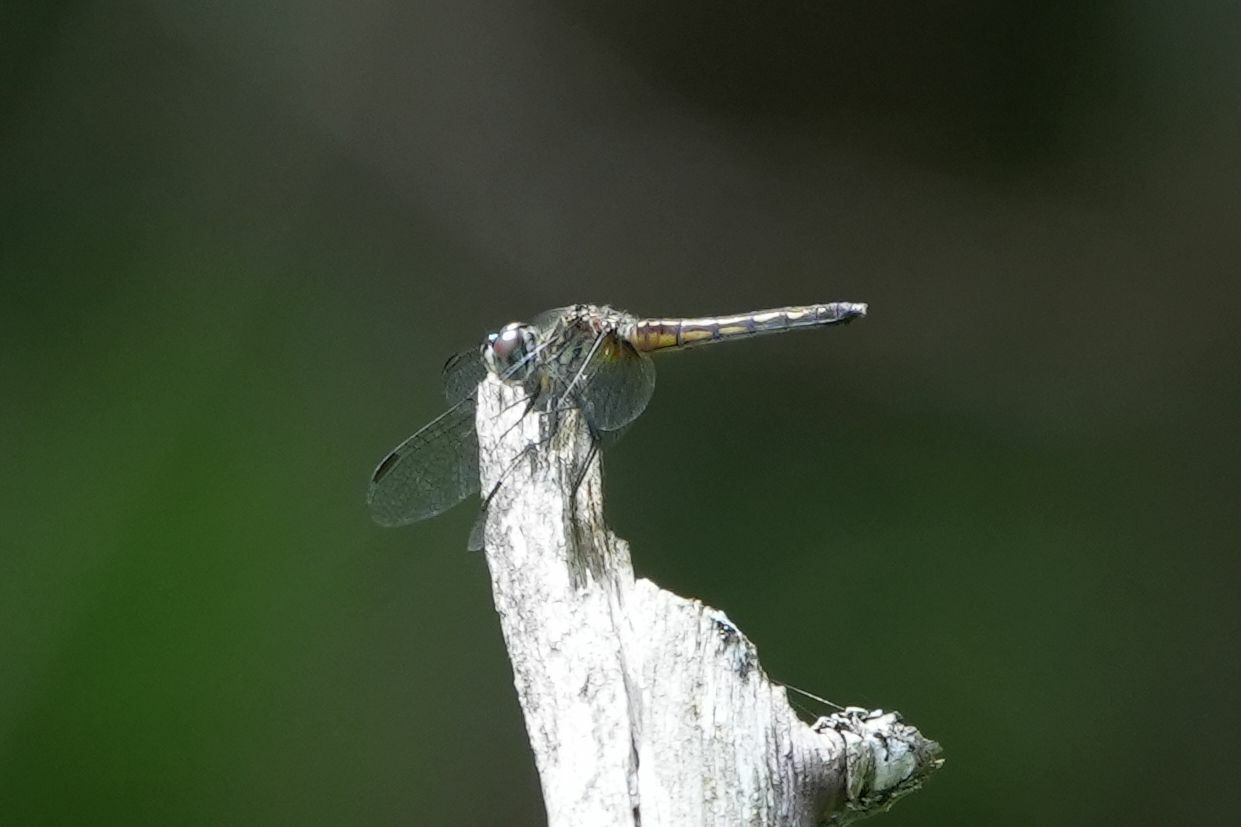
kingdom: Animalia
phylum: Arthropoda
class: Insecta
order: Odonata
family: Libellulidae
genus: Pachydiplax
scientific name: Pachydiplax longipennis
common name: Blue dasher
